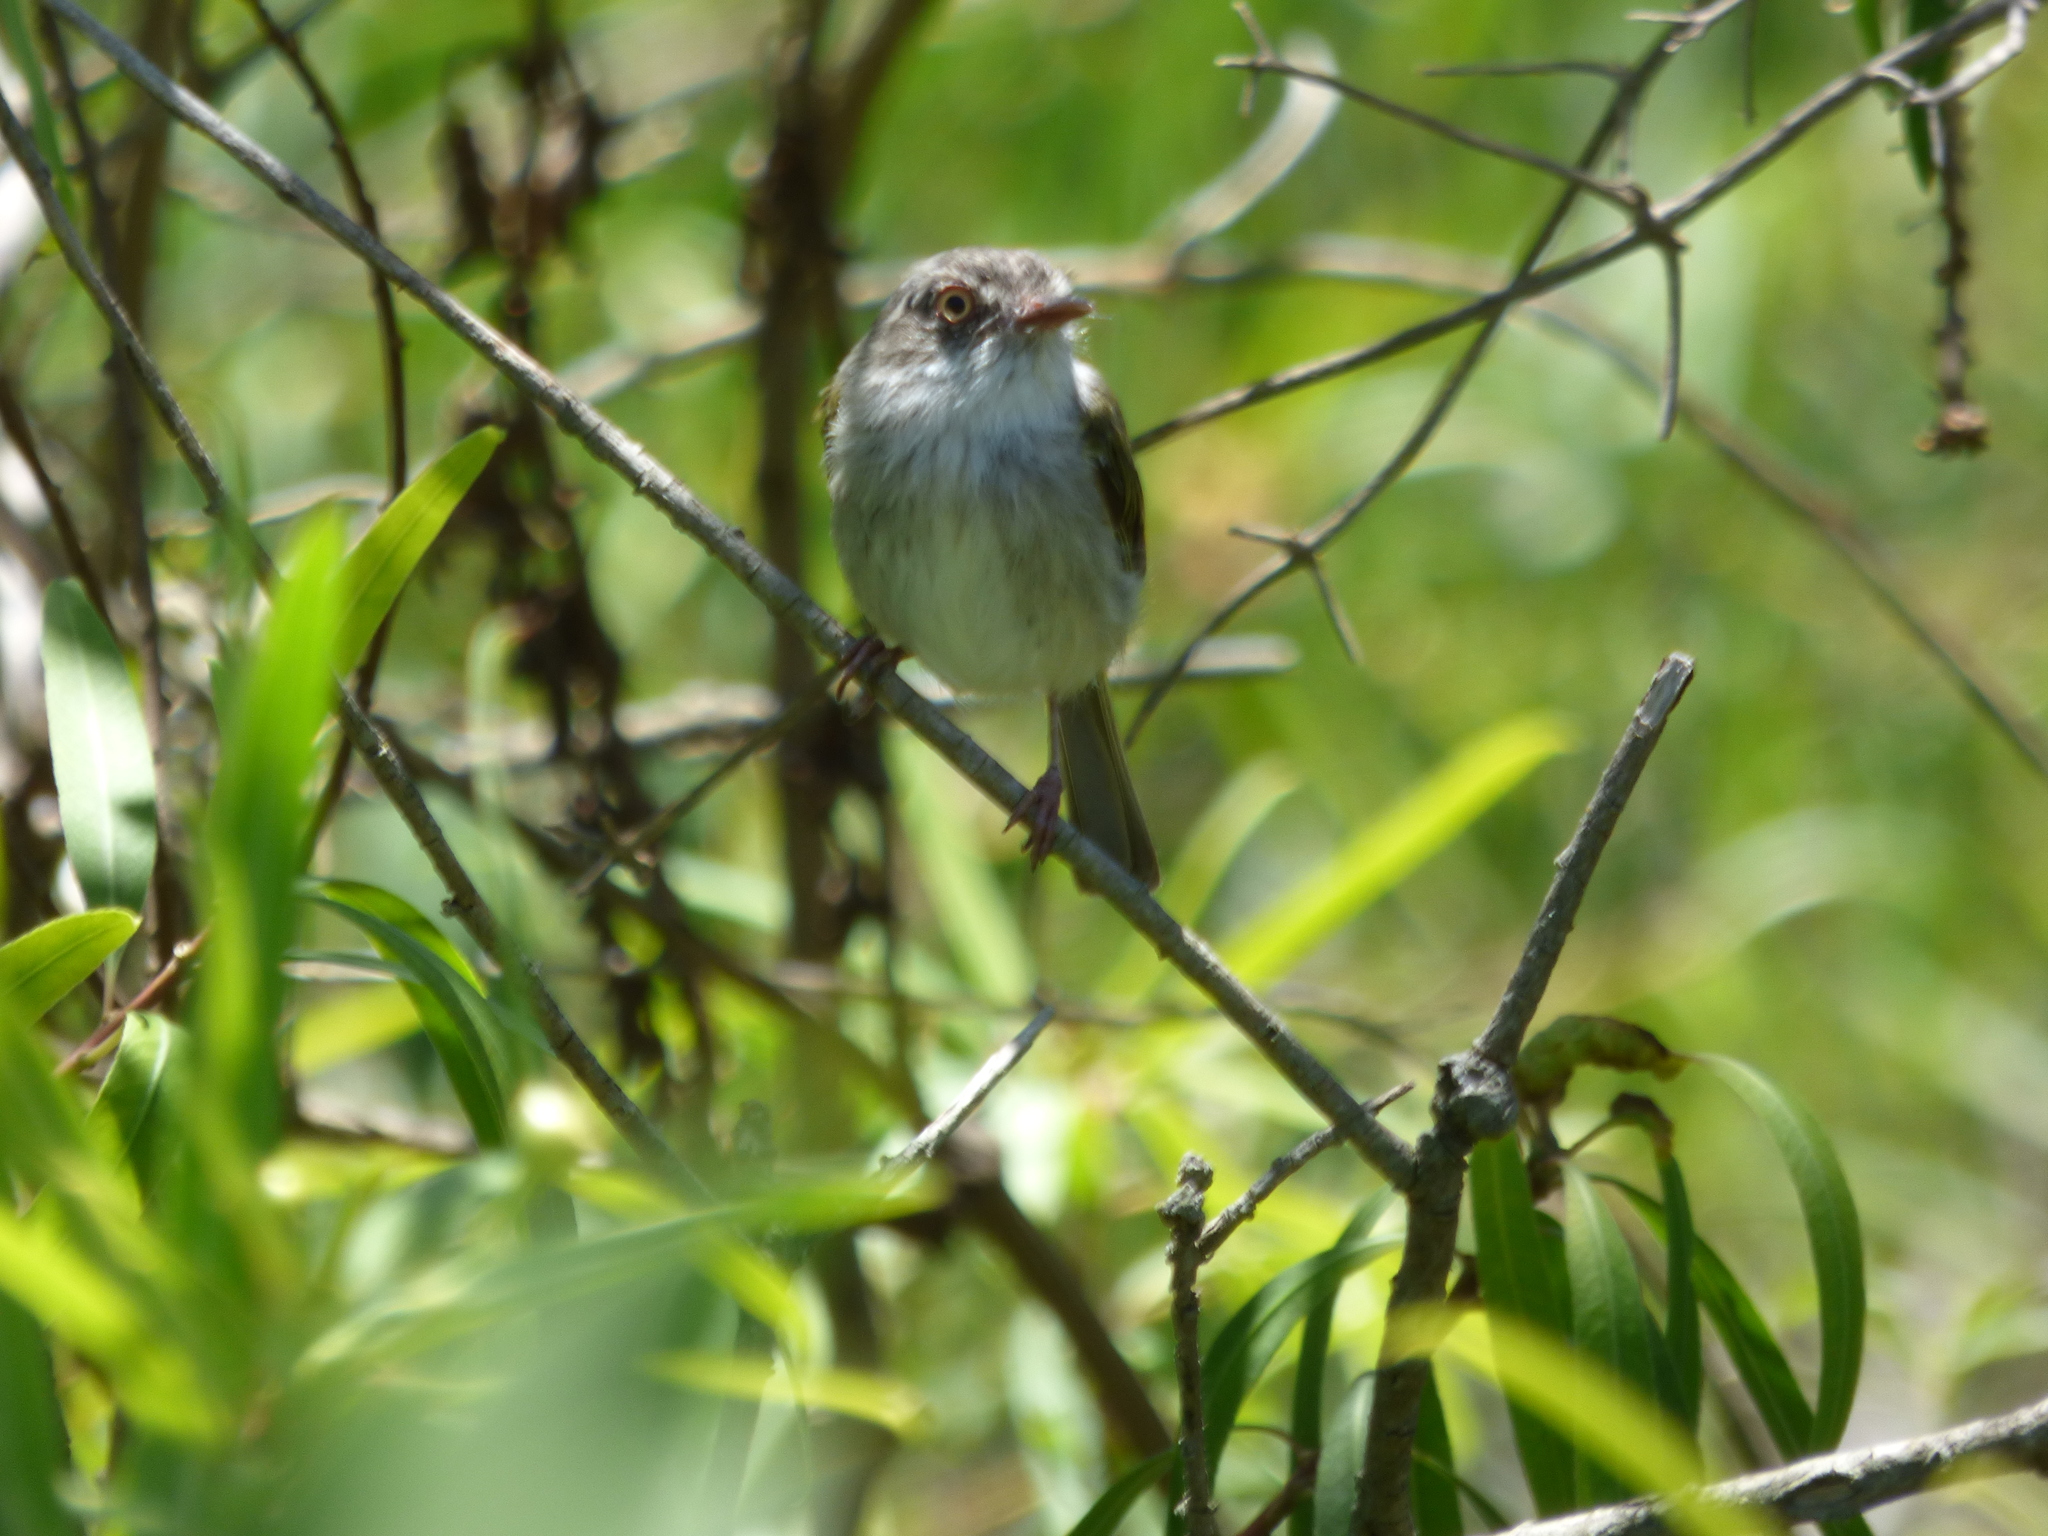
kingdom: Animalia
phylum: Chordata
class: Aves
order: Passeriformes
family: Tyrannidae
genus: Hemitriccus
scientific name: Hemitriccus margaritaceiventer
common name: Pearly-vented tody-tyrant
